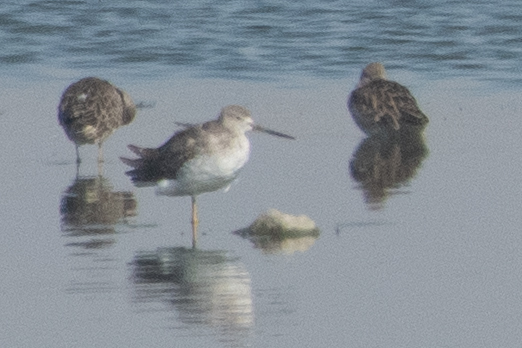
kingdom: Animalia
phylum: Chordata
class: Aves
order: Charadriiformes
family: Scolopacidae
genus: Tringa
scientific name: Tringa melanoleuca
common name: Greater yellowlegs
